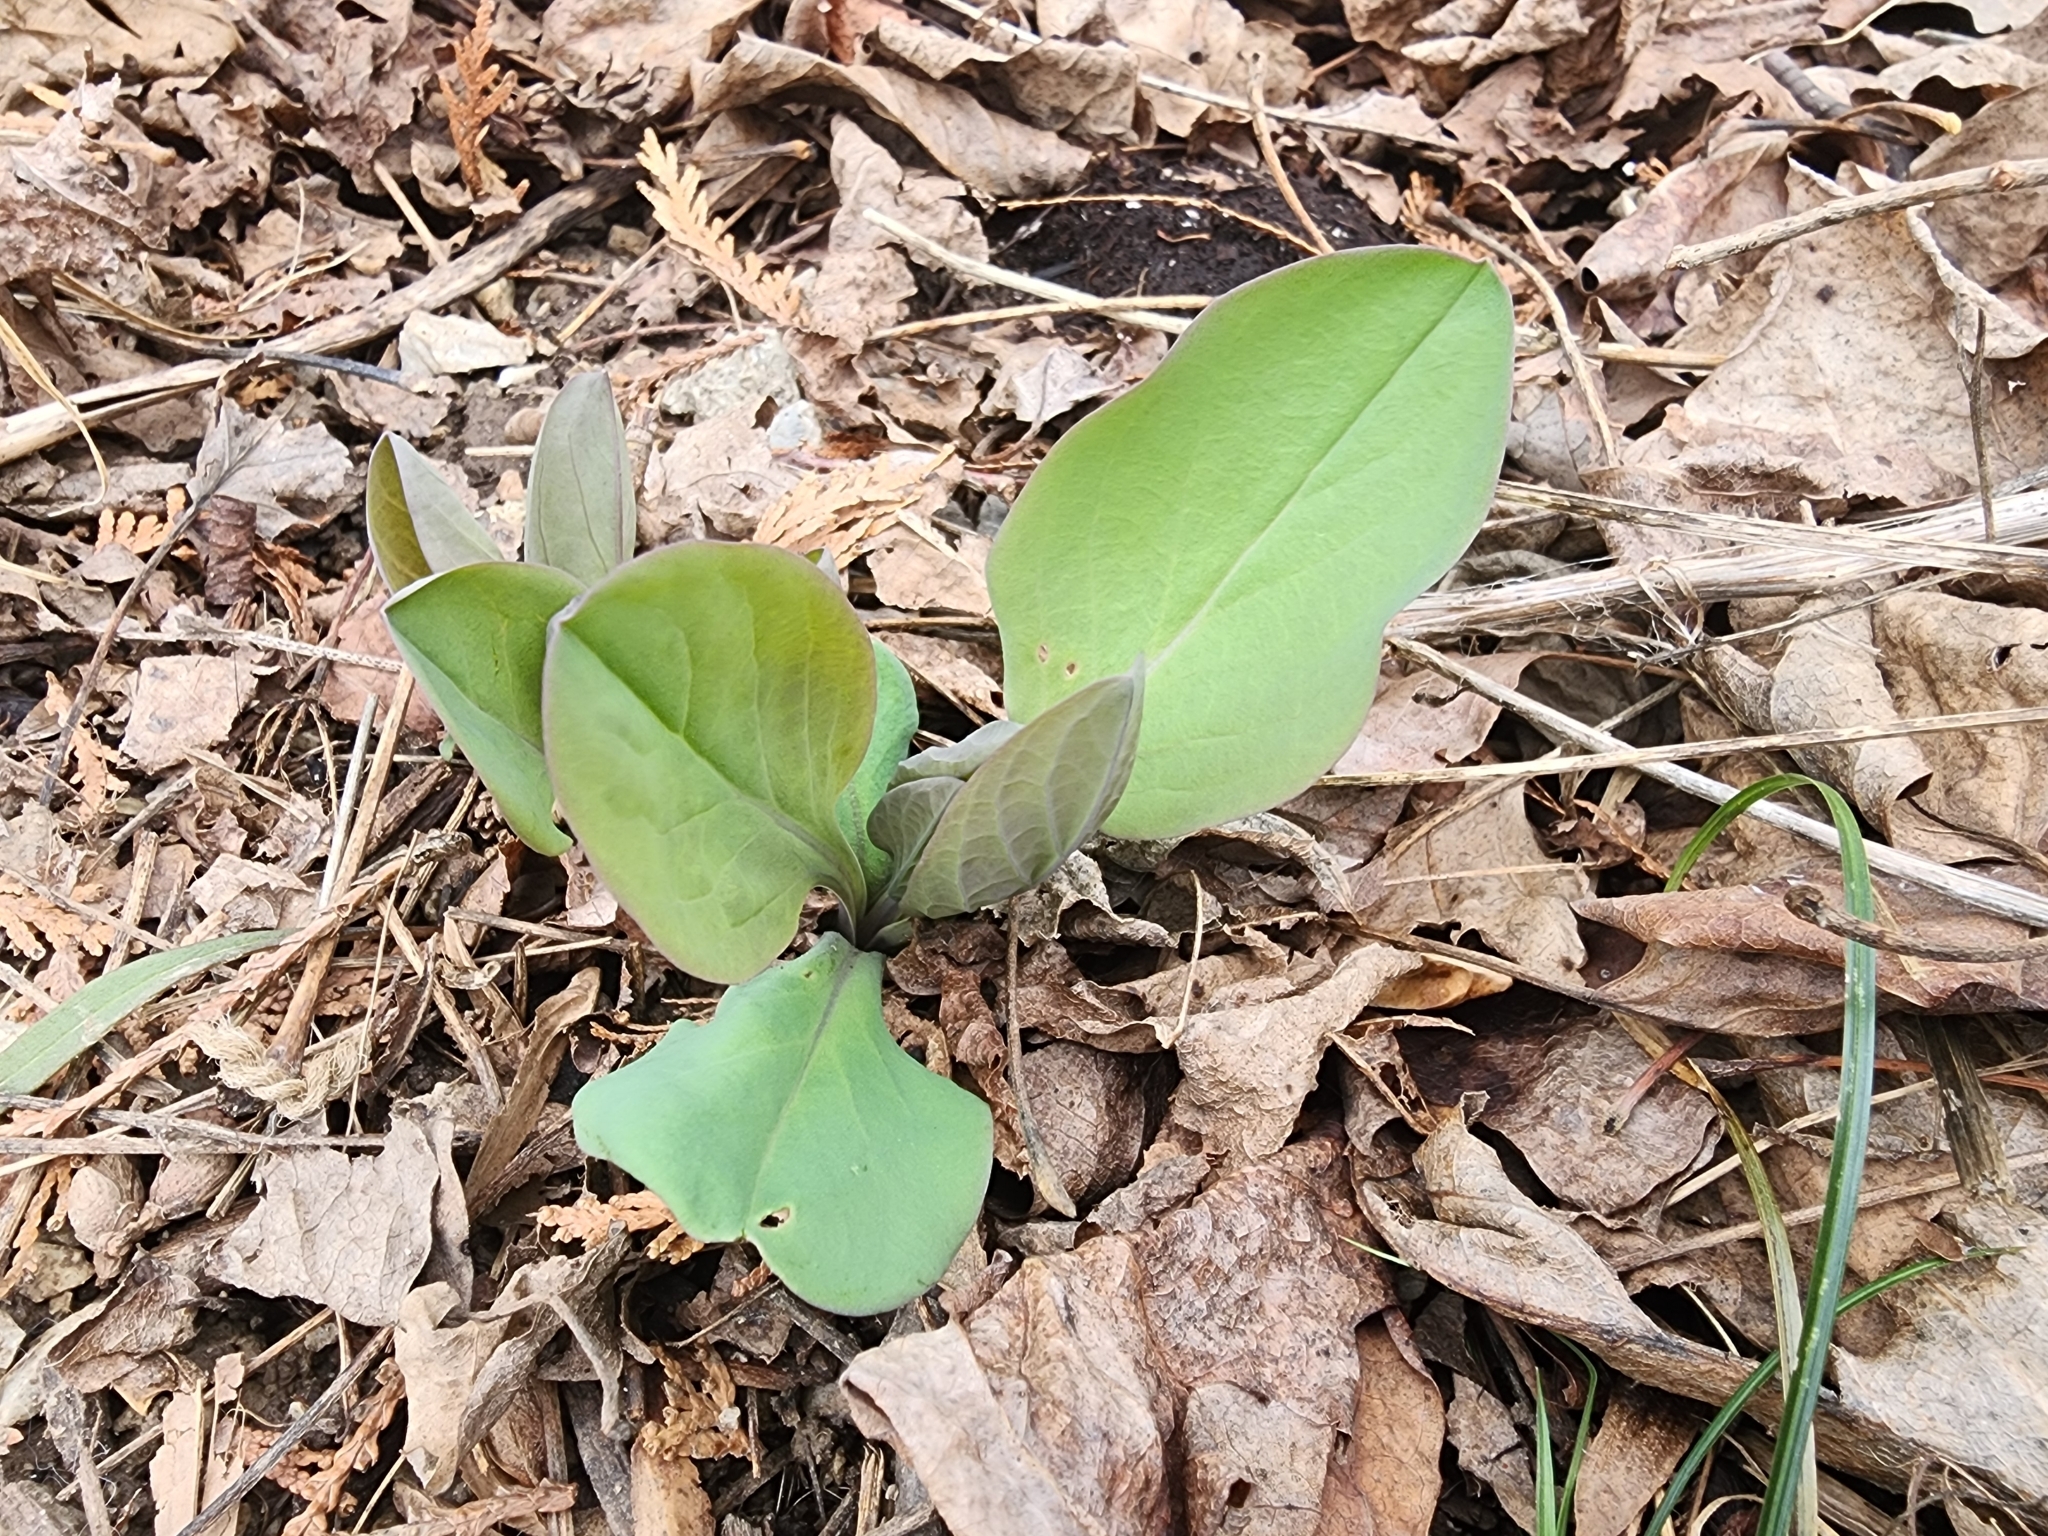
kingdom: Plantae
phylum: Tracheophyta
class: Magnoliopsida
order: Boraginales
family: Boraginaceae
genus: Mertensia
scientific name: Mertensia virginica
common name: Virginia bluebells
